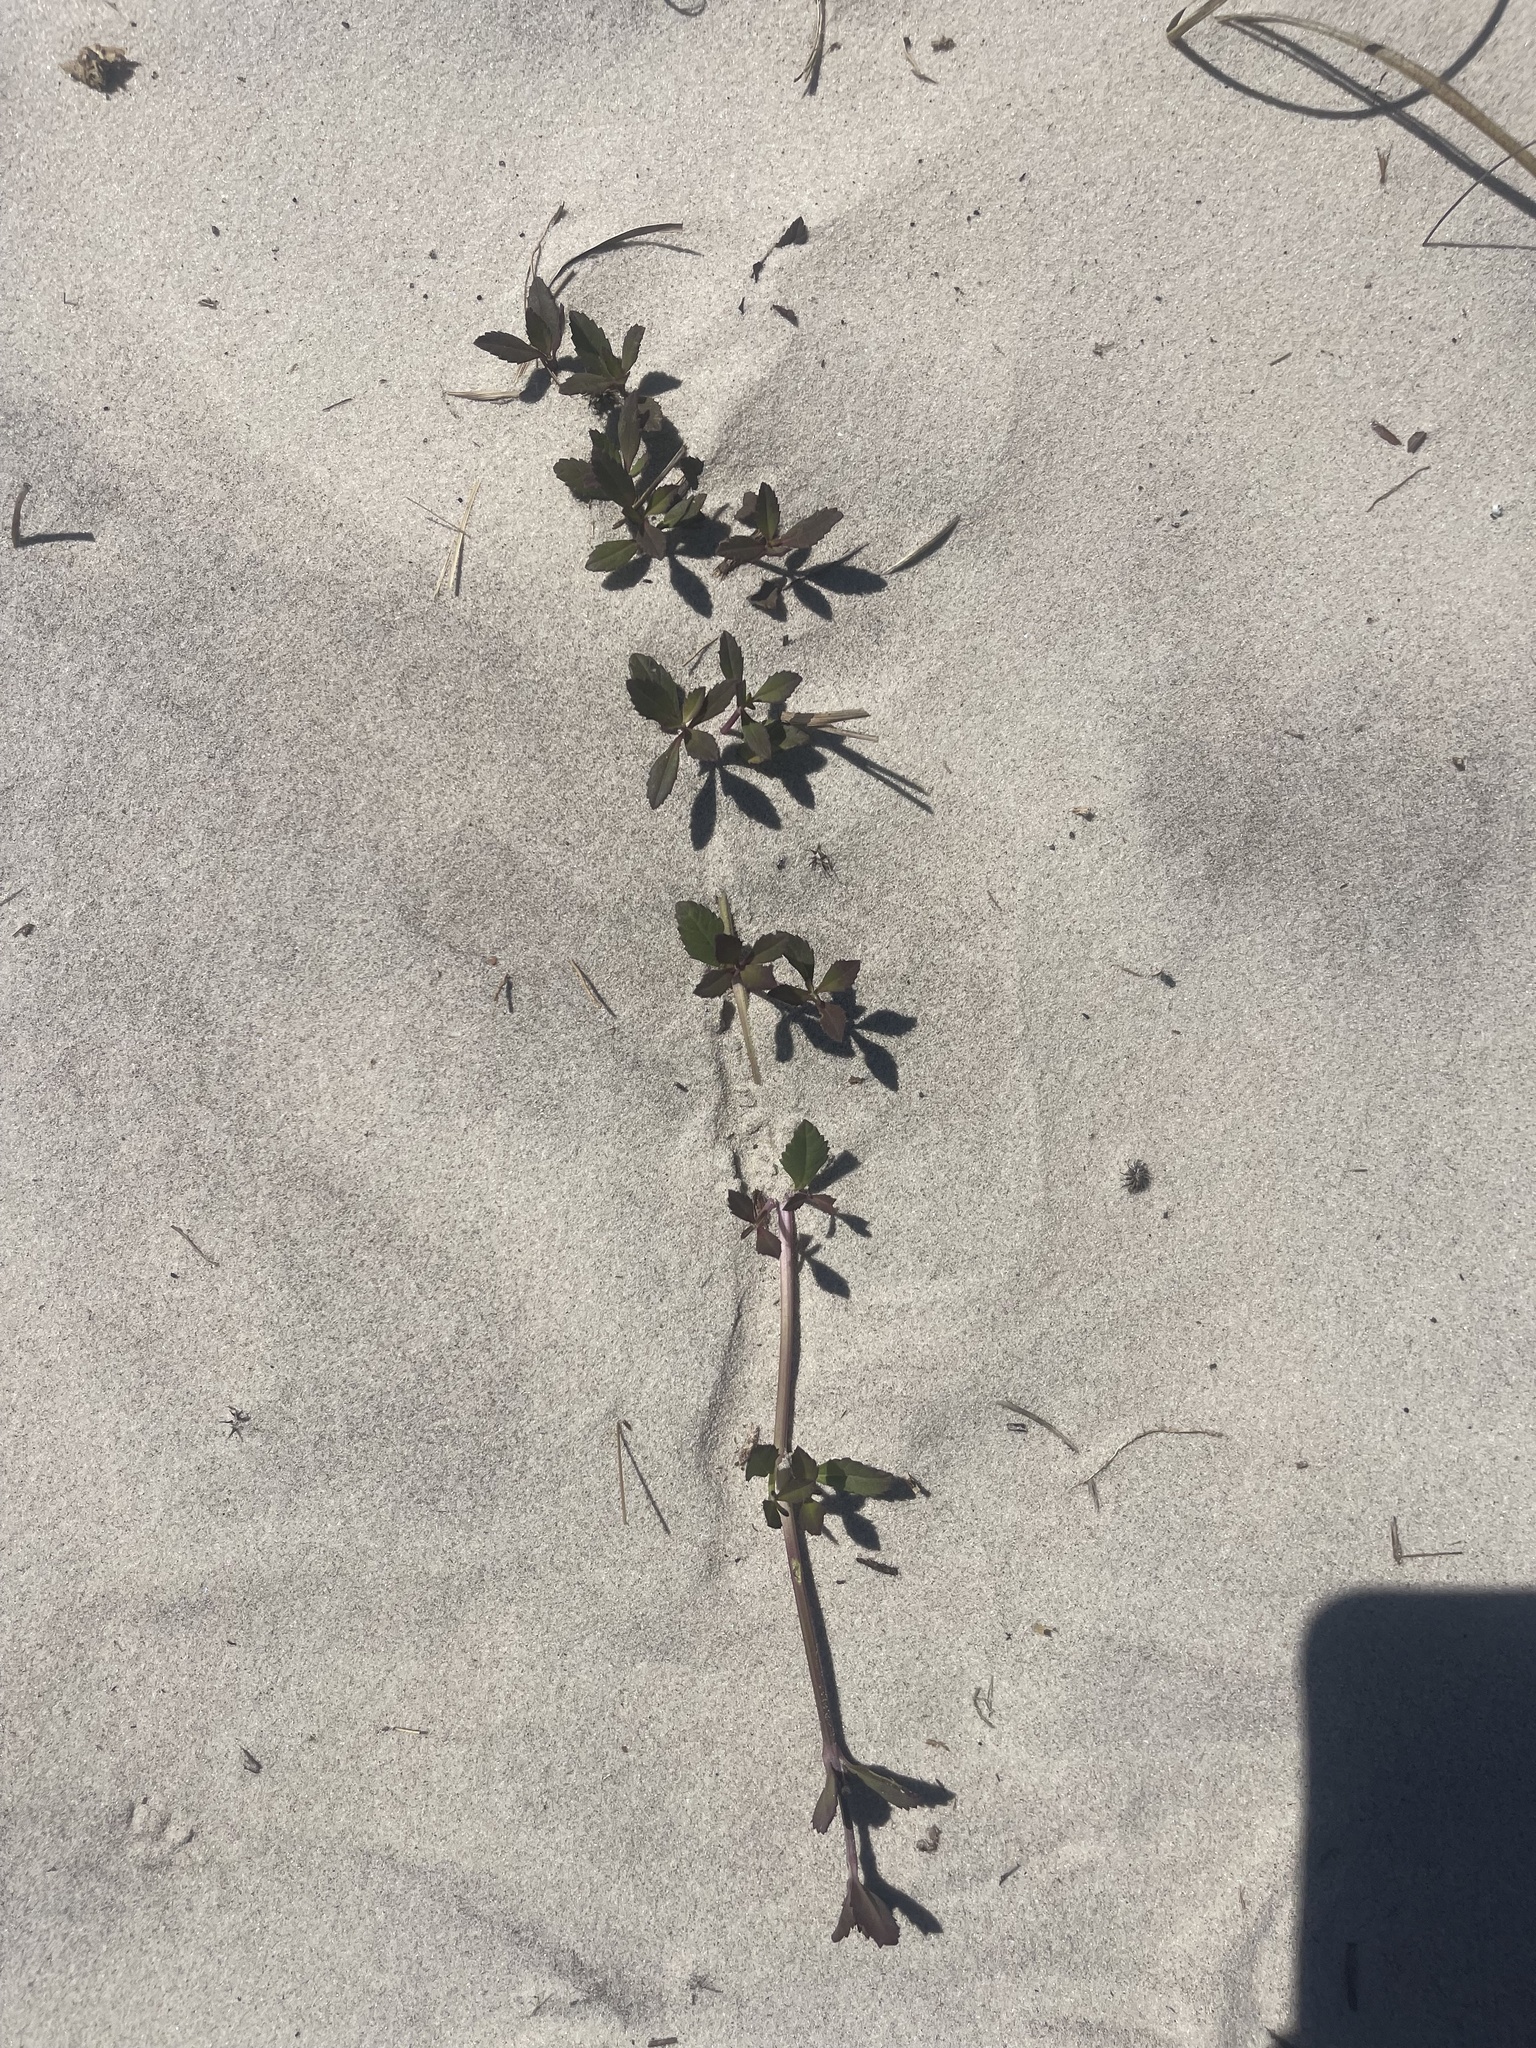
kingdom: Plantae
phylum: Tracheophyta
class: Magnoliopsida
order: Lamiales
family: Verbenaceae
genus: Phyla
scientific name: Phyla nodiflora
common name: Frogfruit
